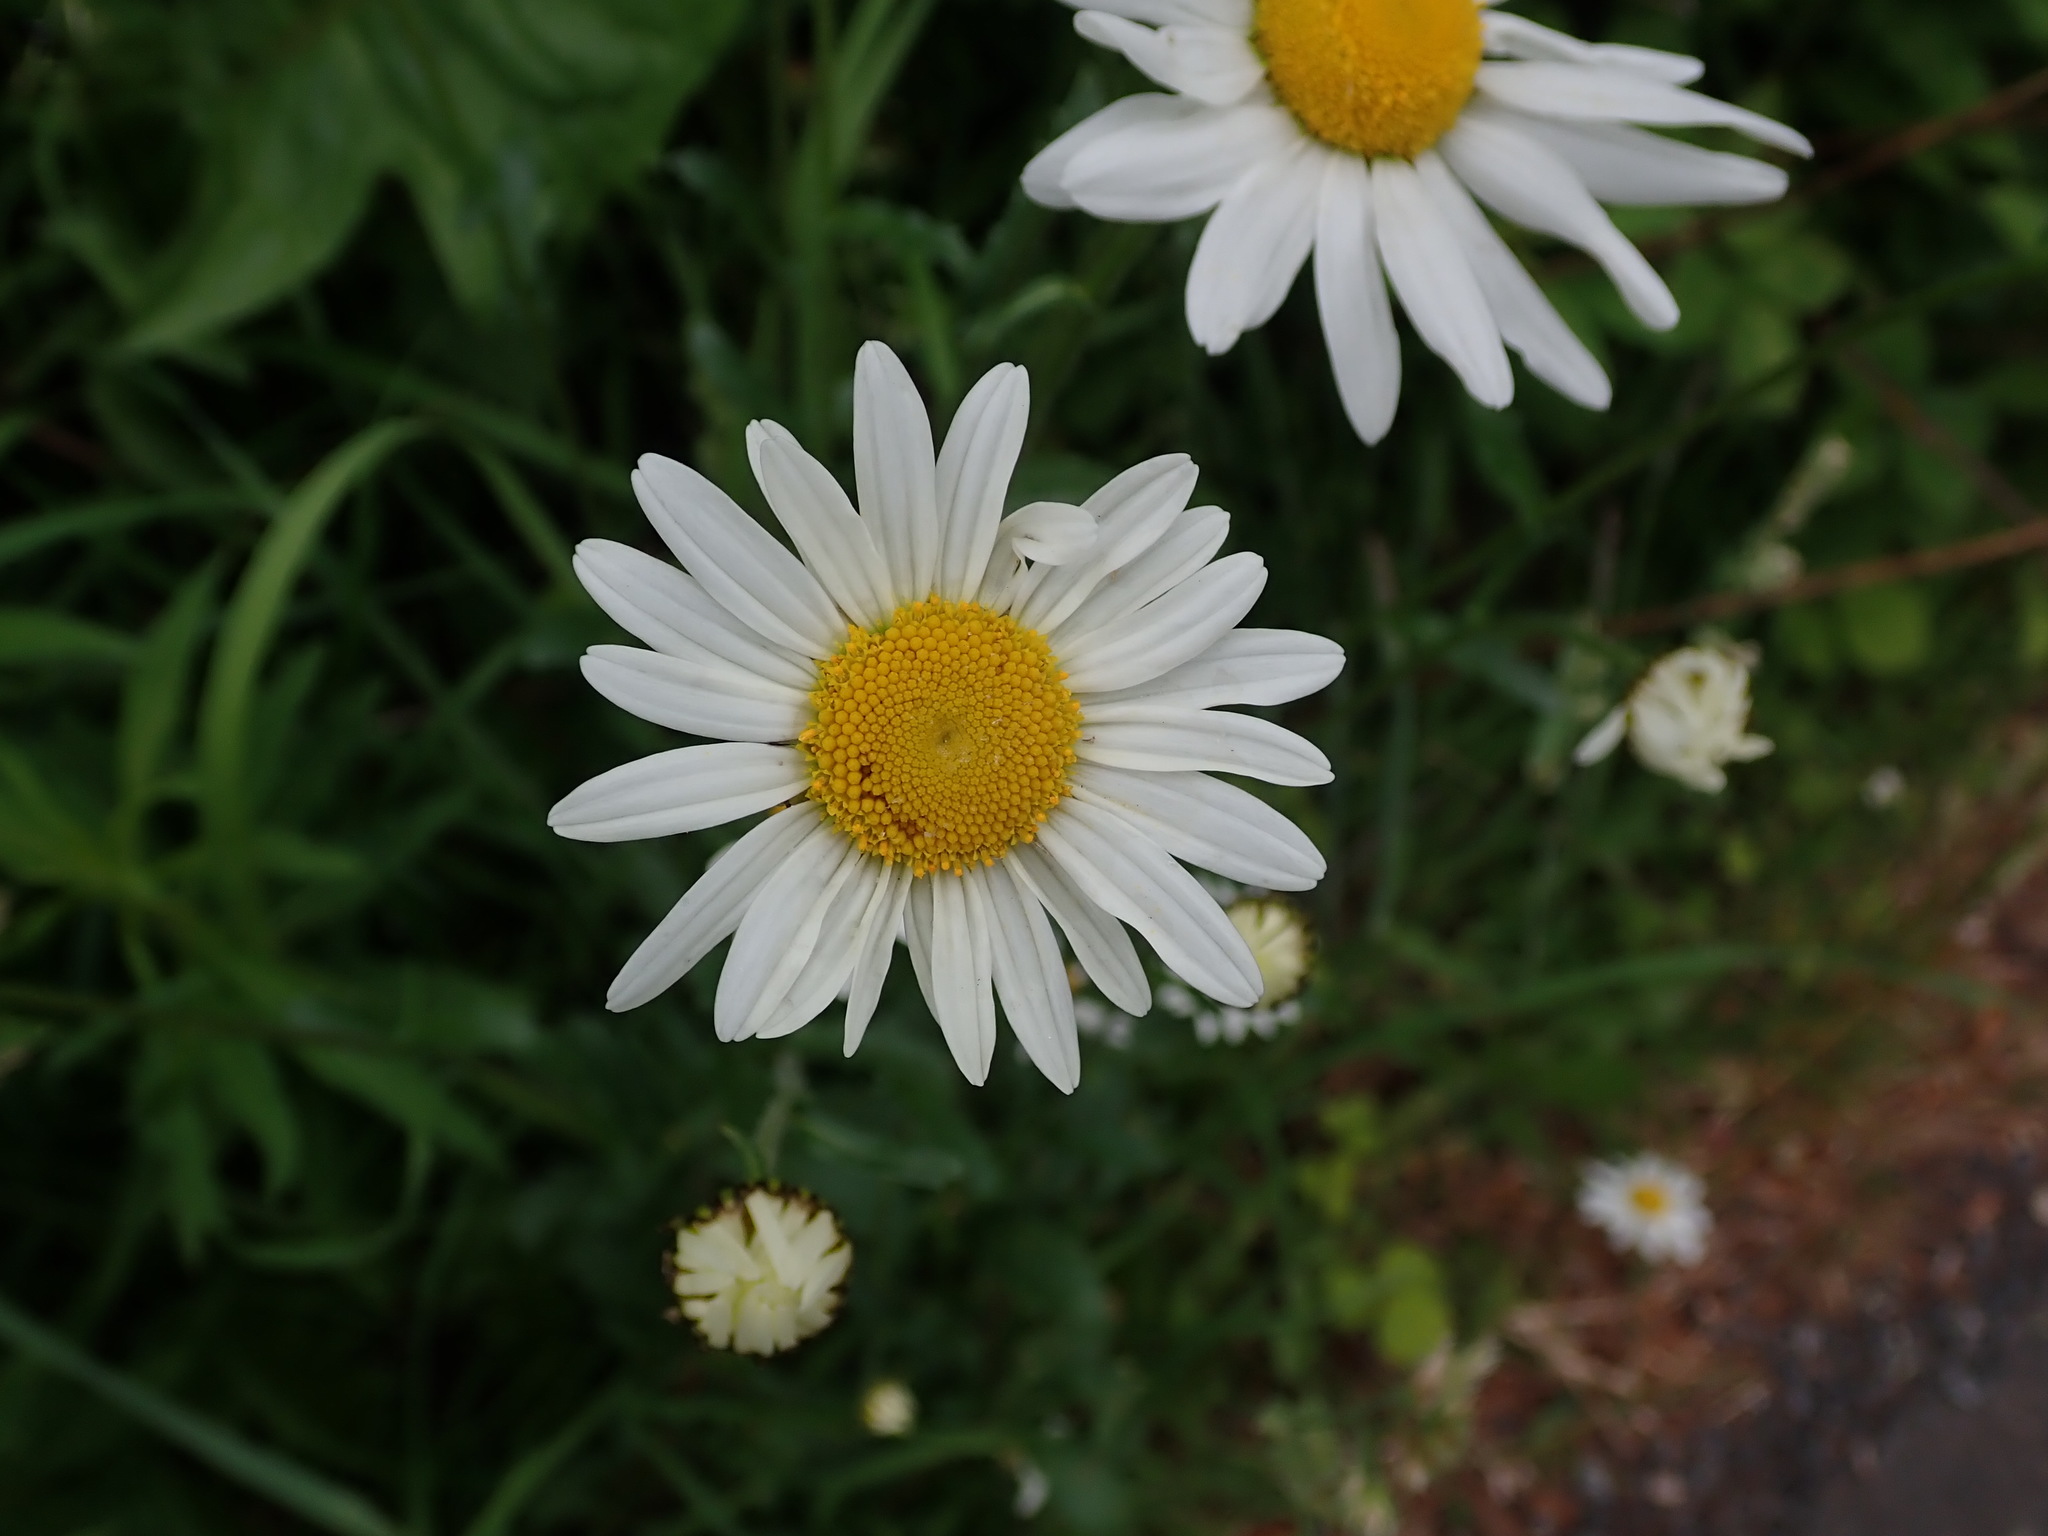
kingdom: Plantae
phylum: Tracheophyta
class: Magnoliopsida
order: Asterales
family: Asteraceae
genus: Leucanthemum
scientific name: Leucanthemum vulgare
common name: Oxeye daisy
